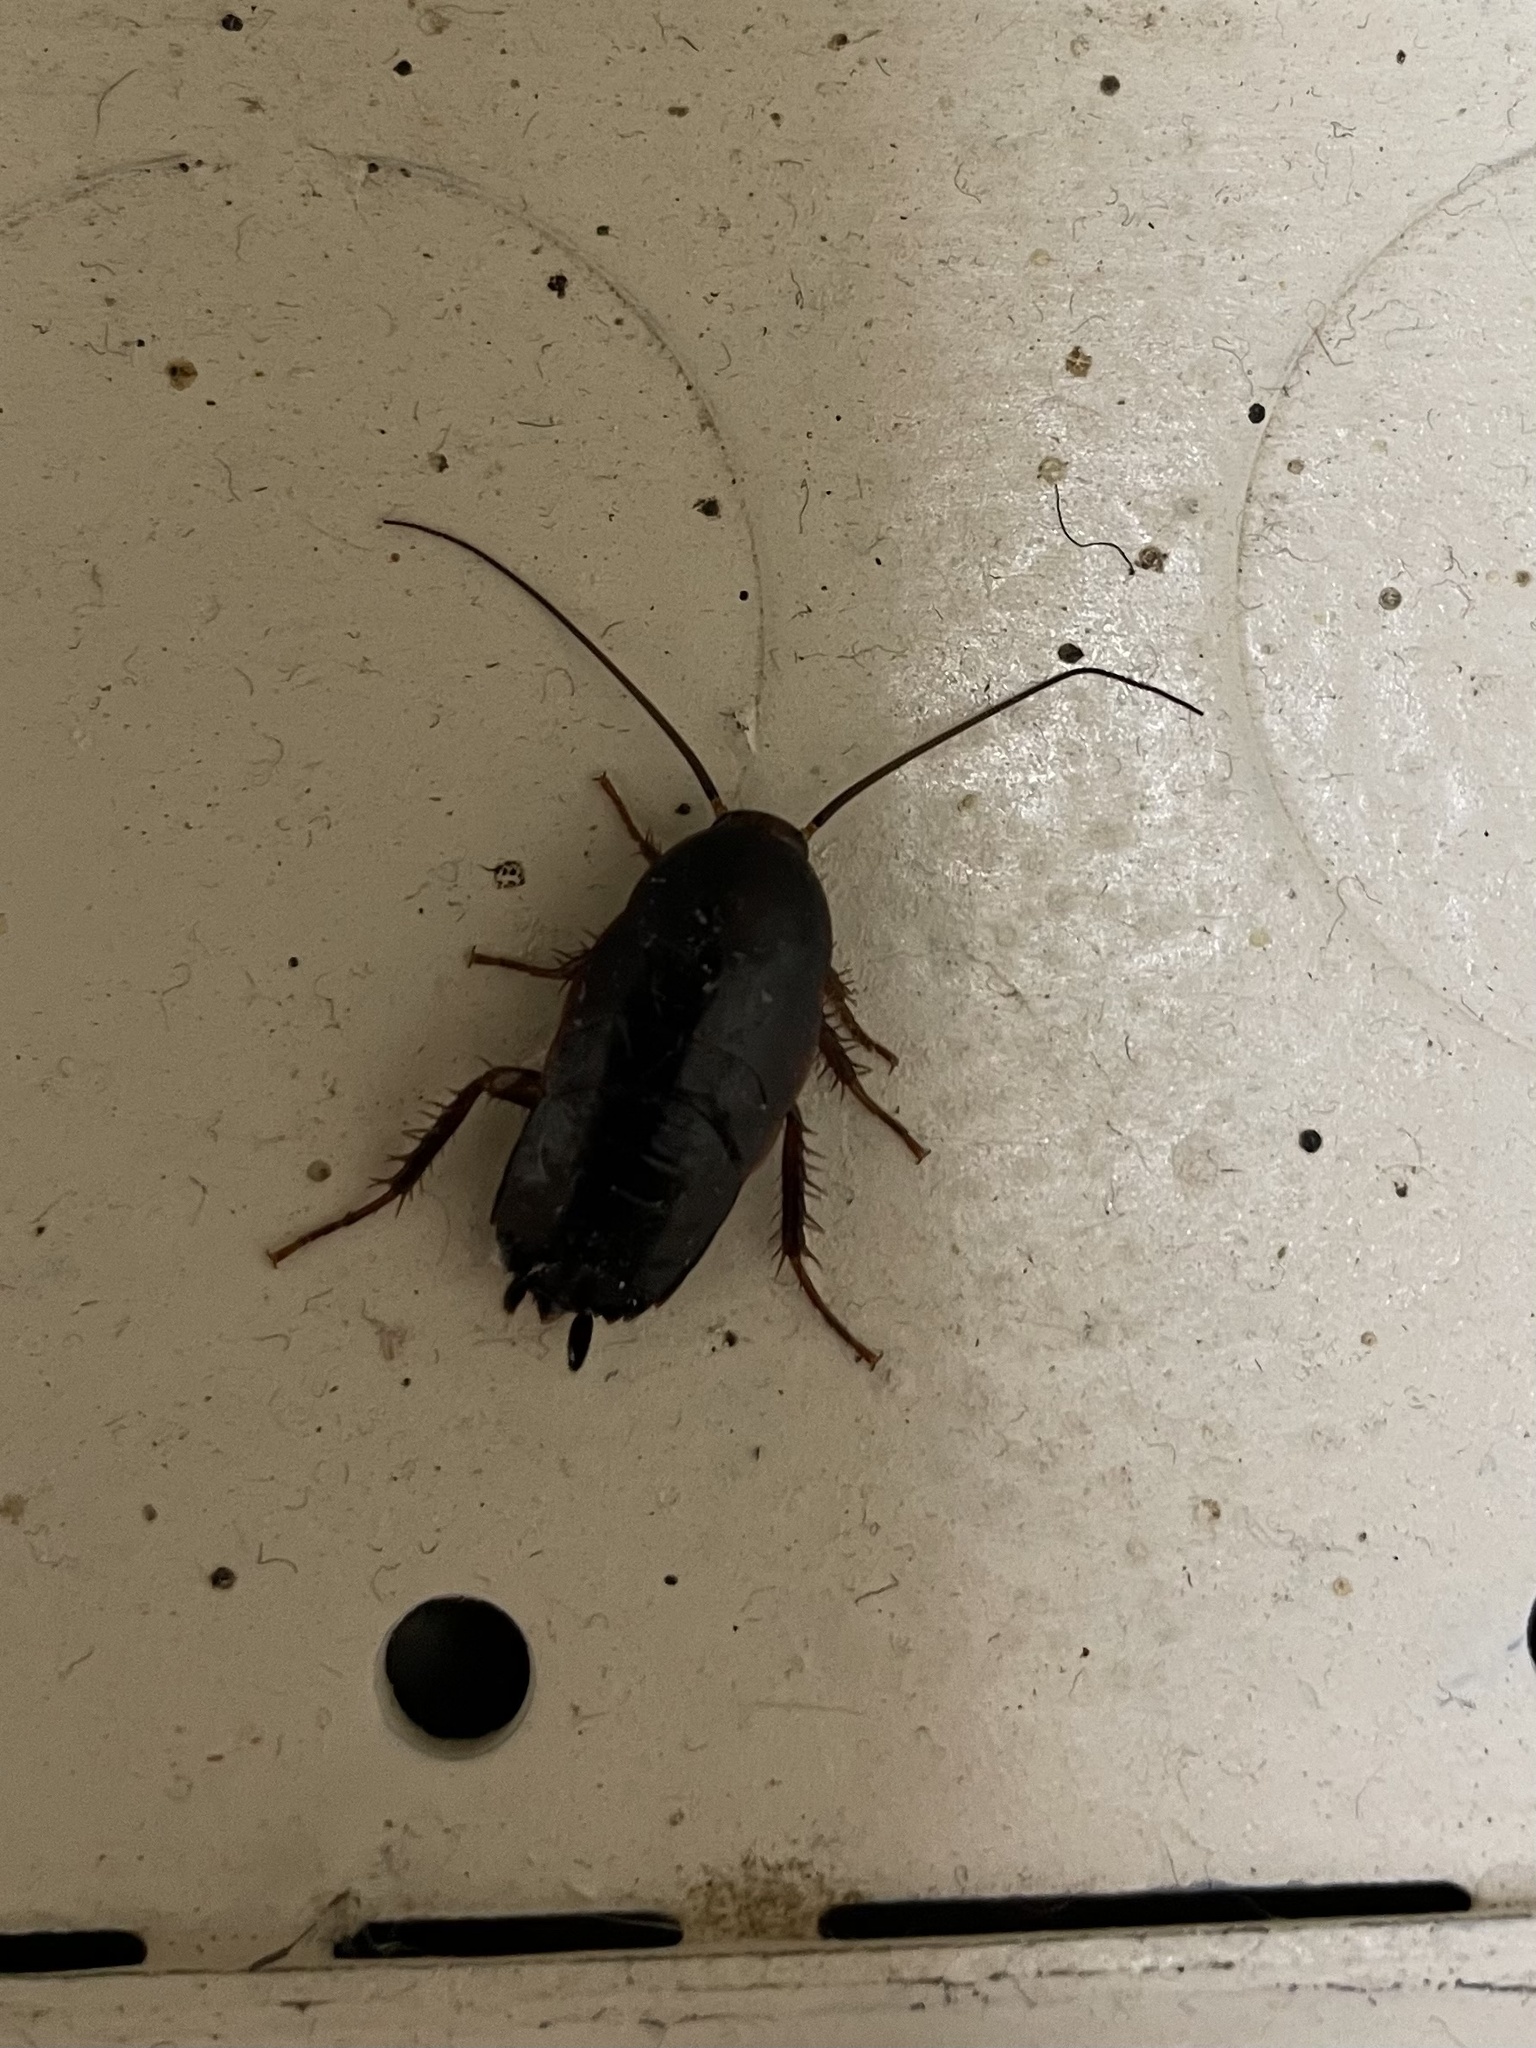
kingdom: Animalia
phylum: Arthropoda
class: Insecta
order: Blattodea
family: Ectobiidae
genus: Parcoblatta
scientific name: Parcoblatta
